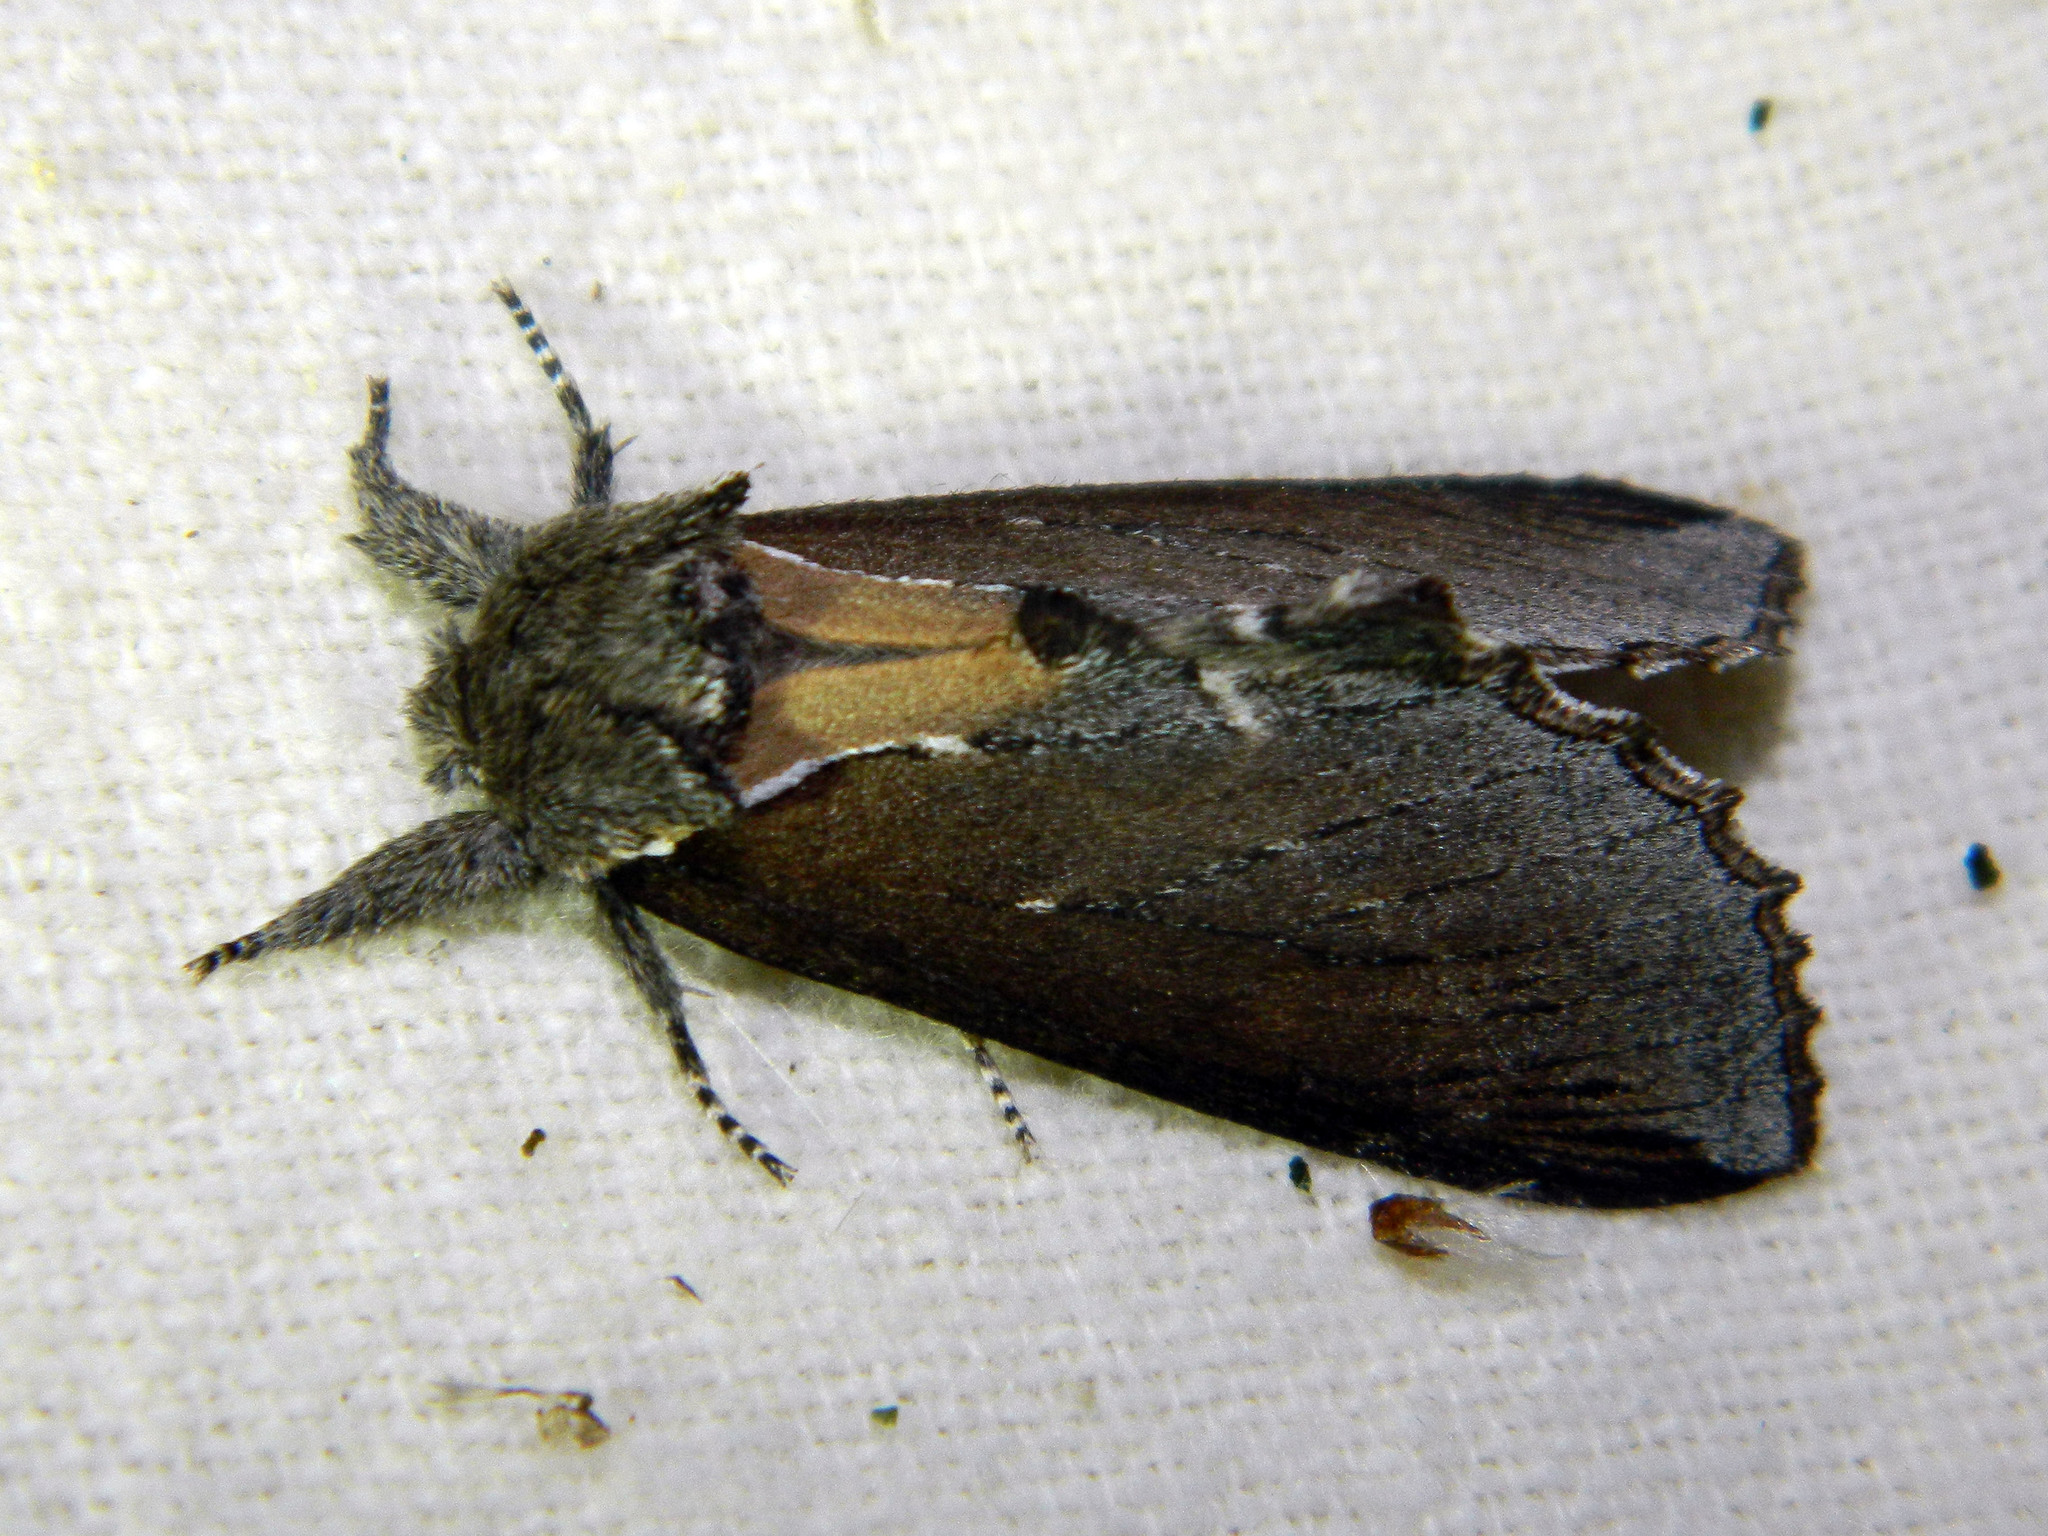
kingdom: Animalia
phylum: Arthropoda
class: Insecta
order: Lepidoptera
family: Notodontidae
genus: Pheosidea
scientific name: Pheosidea elegans
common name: Elegant prominent
